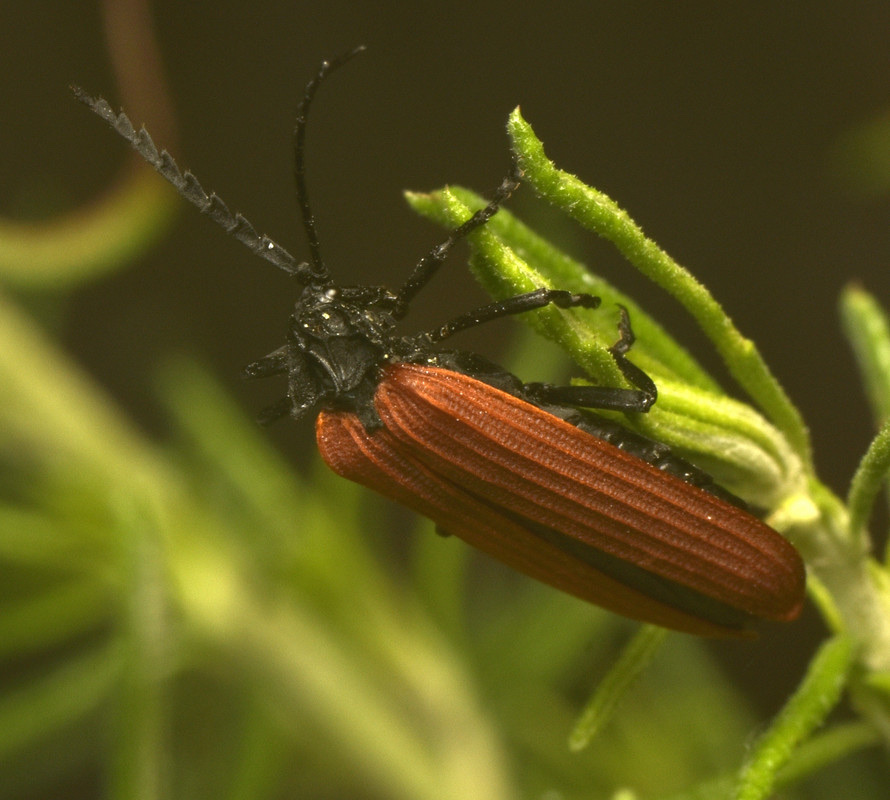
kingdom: Animalia
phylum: Arthropoda
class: Insecta
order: Coleoptera
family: Lycidae
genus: Porrostoma
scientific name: Porrostoma rhipidium
